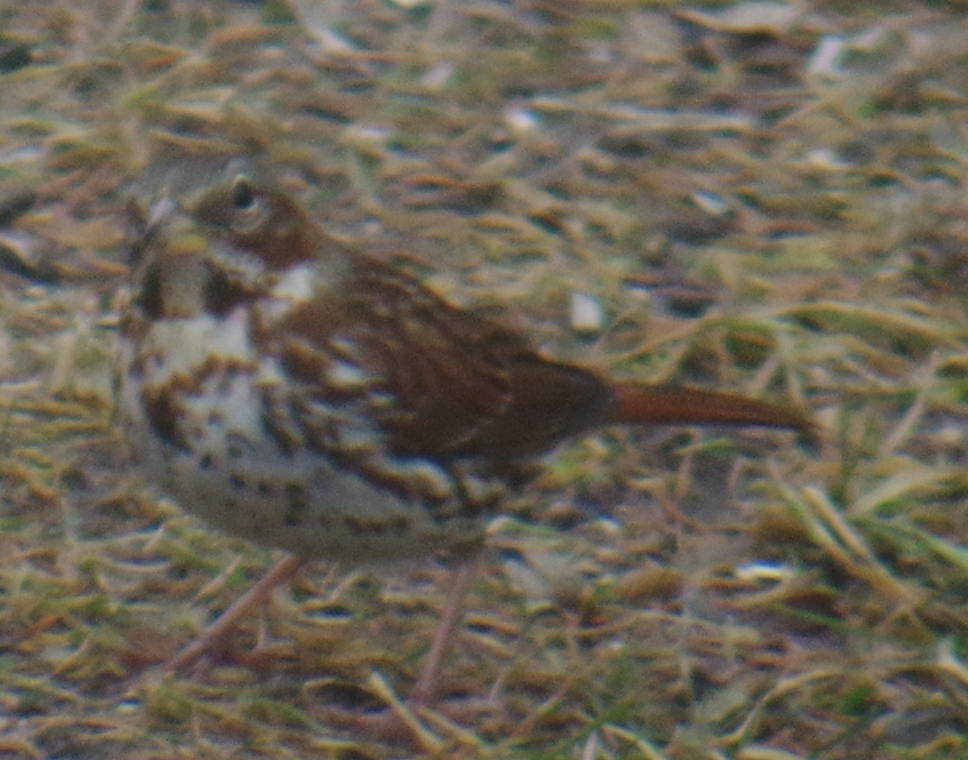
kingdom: Animalia
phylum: Chordata
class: Aves
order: Passeriformes
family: Passerellidae
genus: Passerella
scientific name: Passerella iliaca
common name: Fox sparrow
